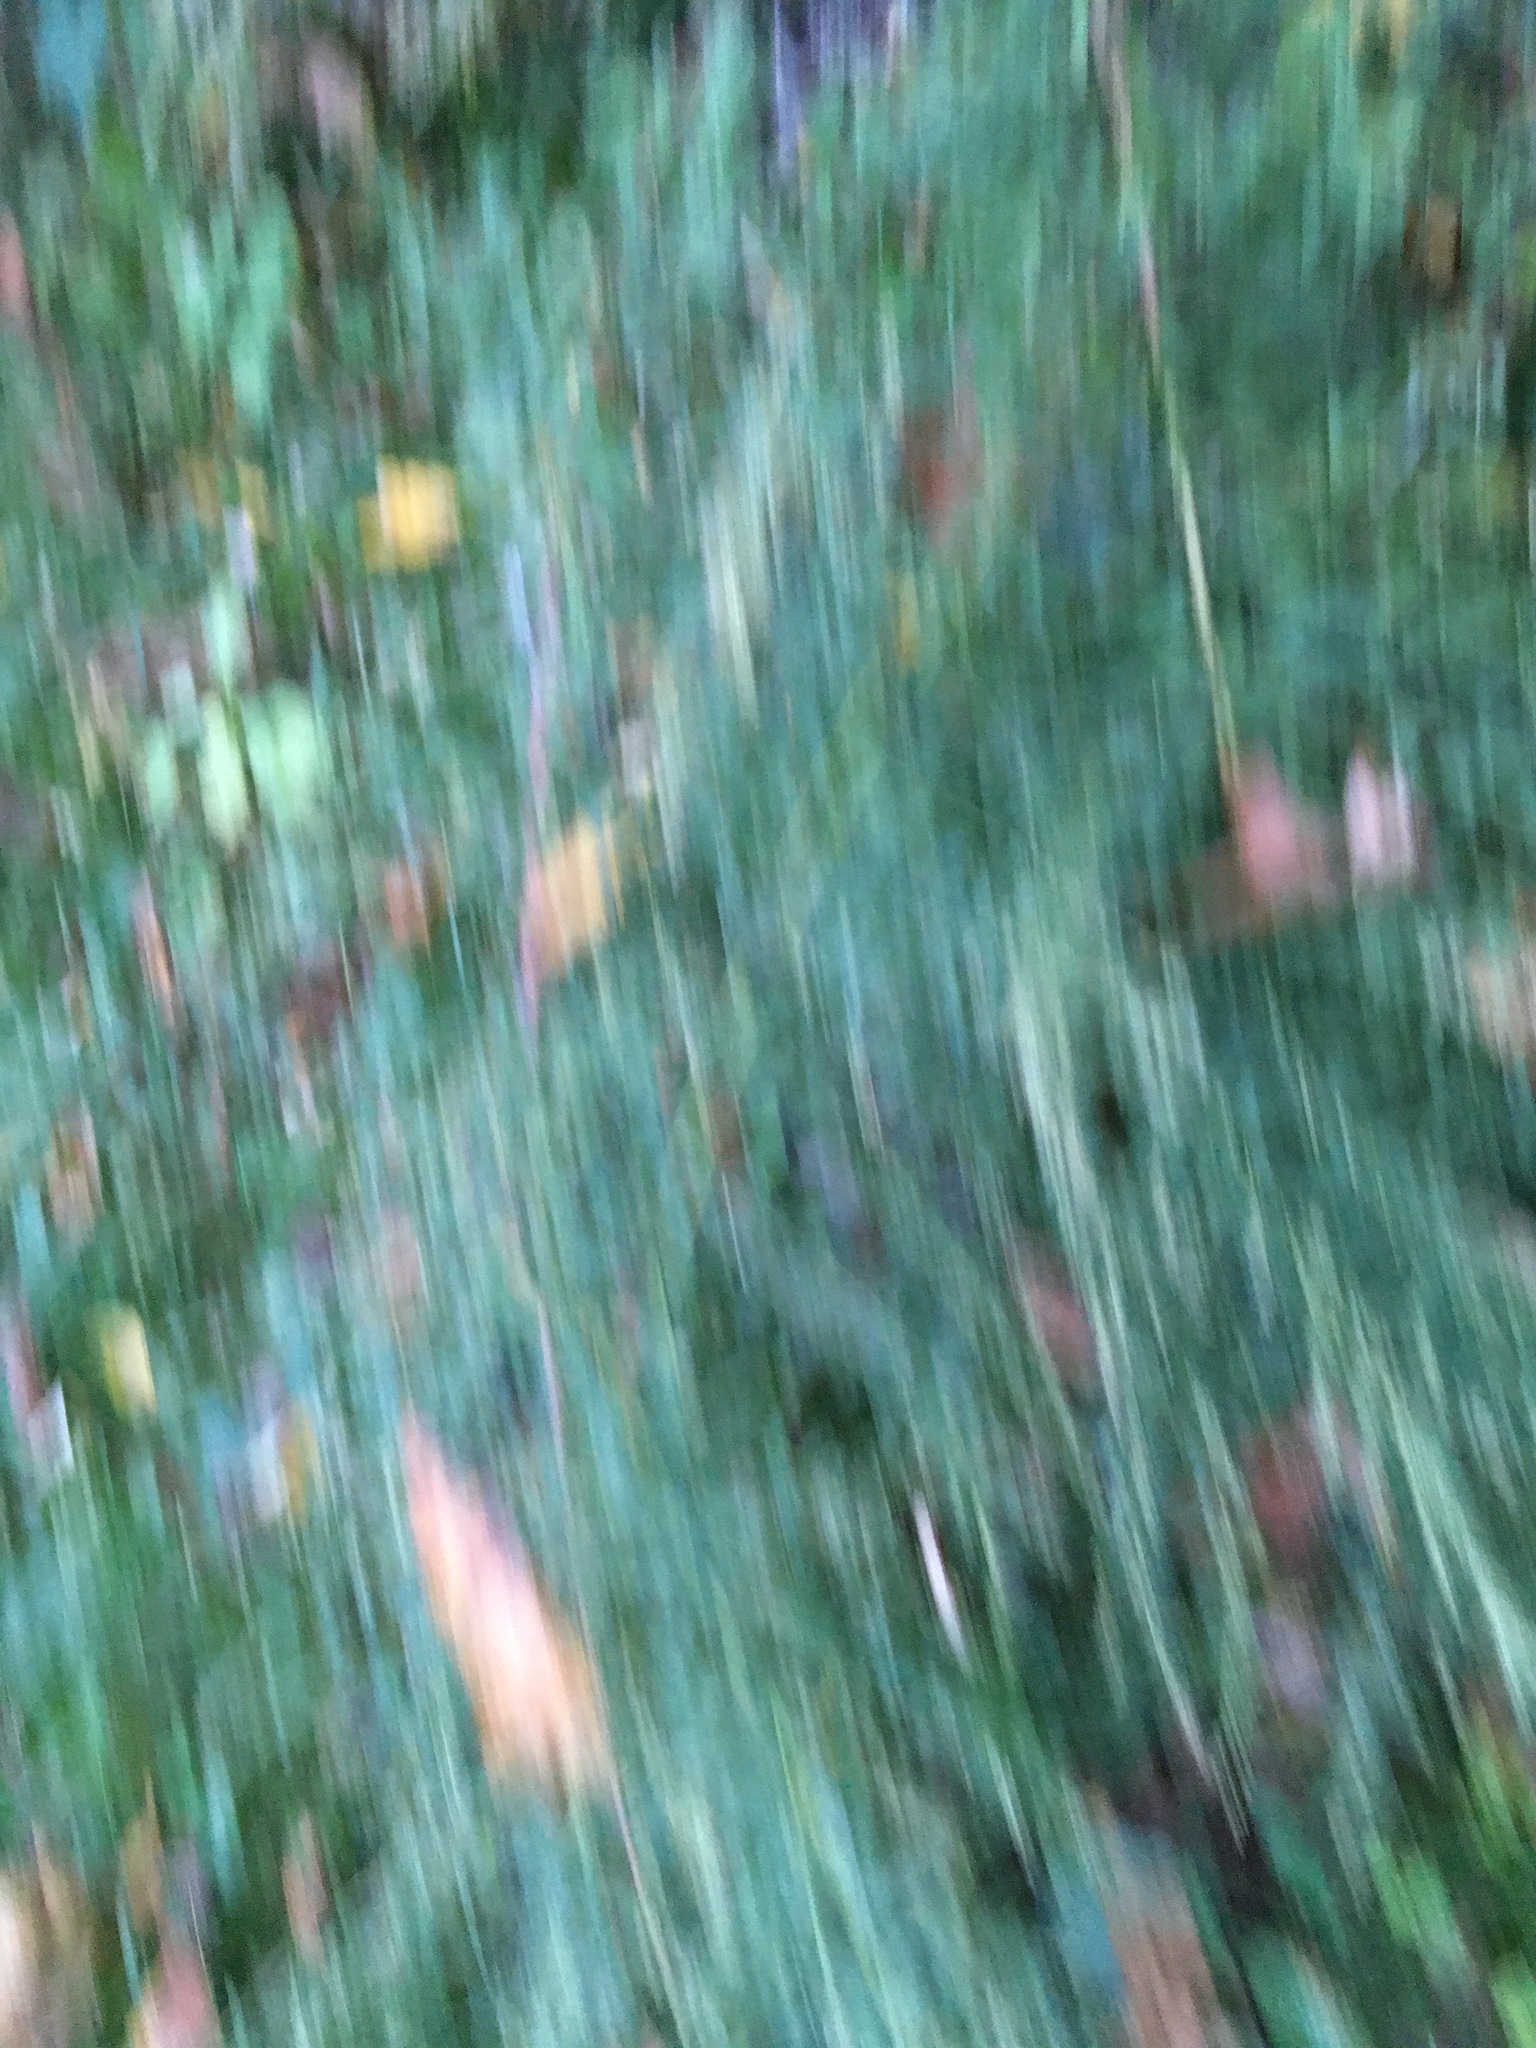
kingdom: Plantae
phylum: Tracheophyta
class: Magnoliopsida
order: Asterales
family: Asteraceae
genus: Artemisia
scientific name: Artemisia vulgaris
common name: Mugwort
